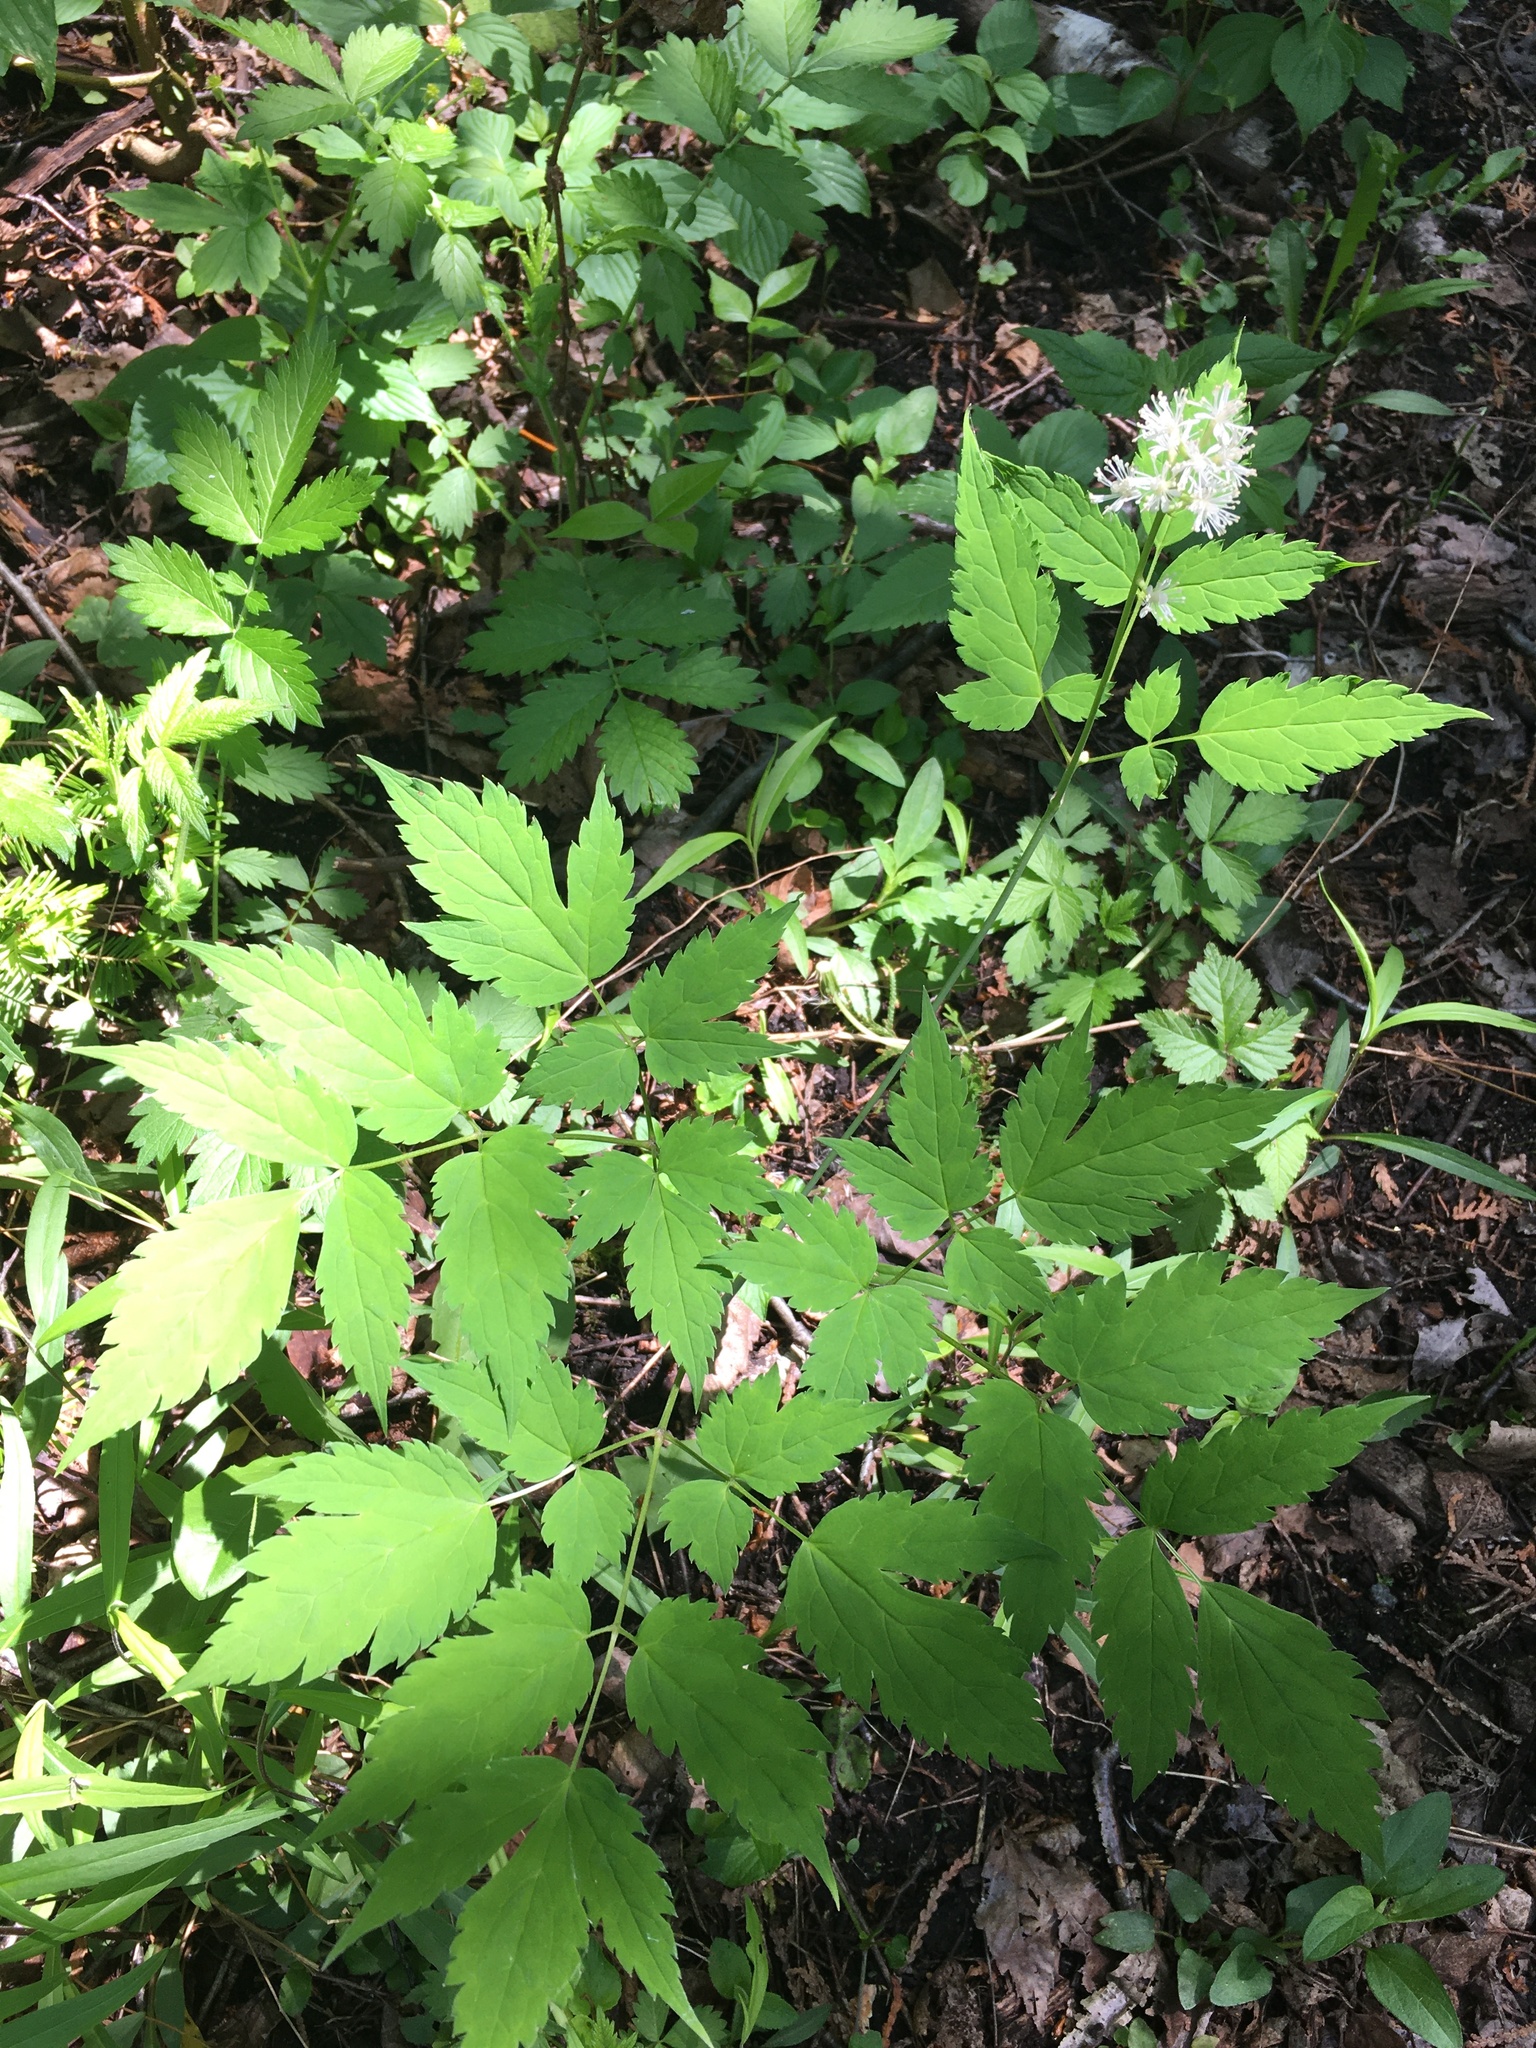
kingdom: Plantae
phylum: Tracheophyta
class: Magnoliopsida
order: Ranunculales
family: Ranunculaceae
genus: Actaea
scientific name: Actaea pachypoda
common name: Doll's-eyes
